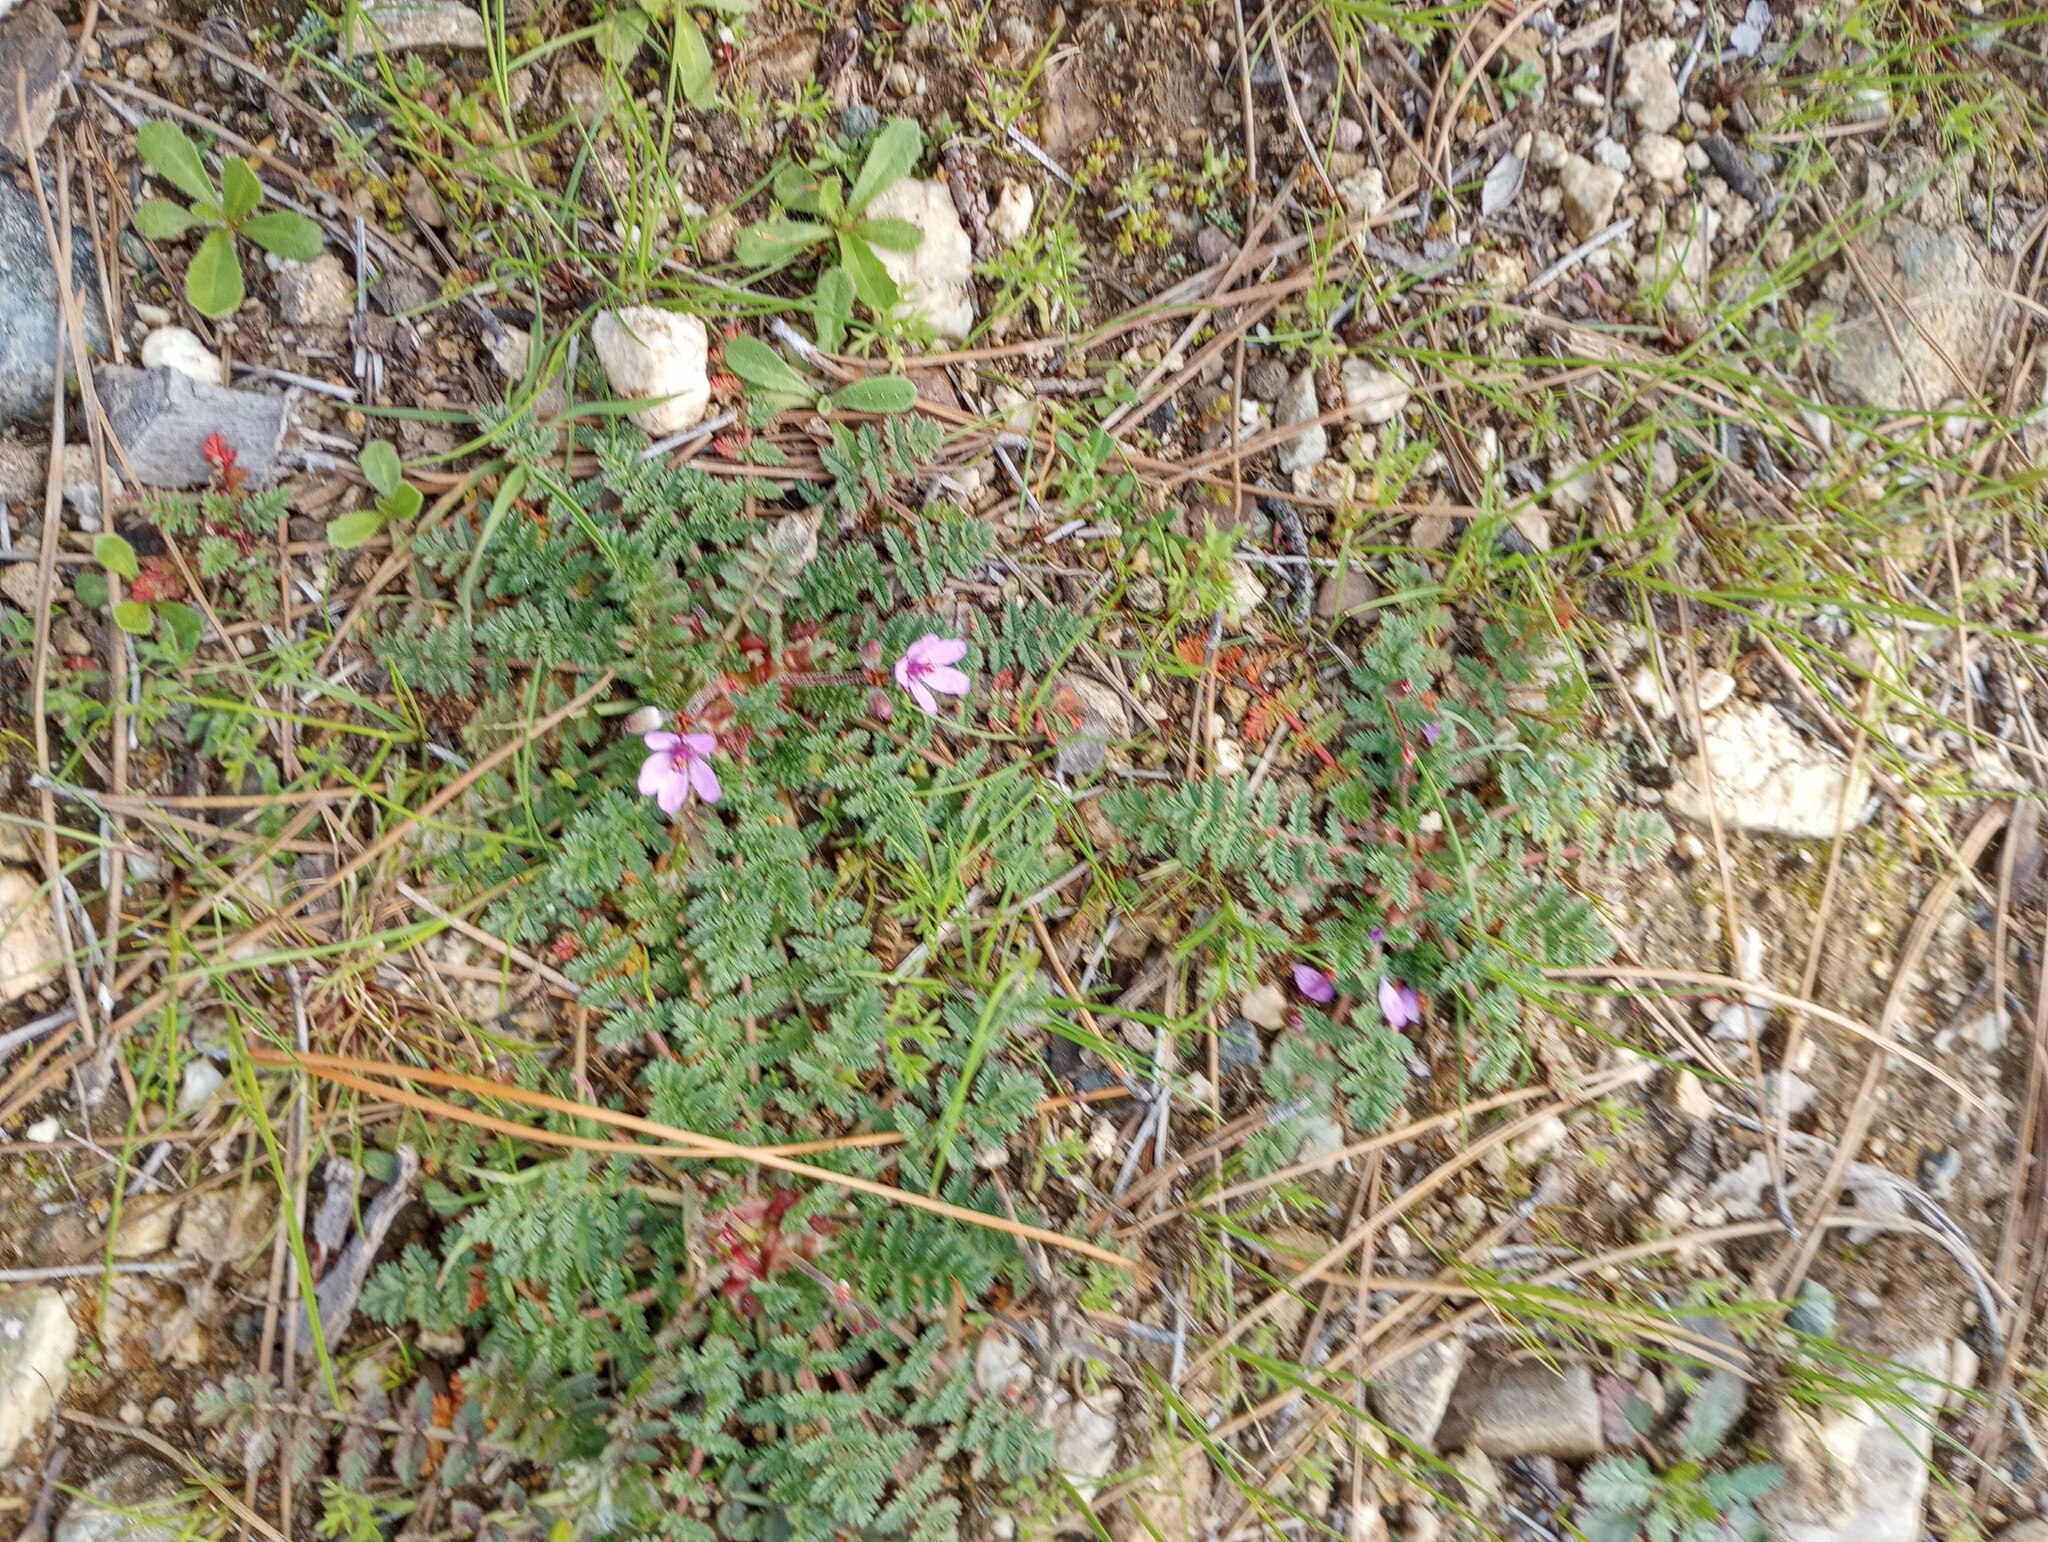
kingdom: Plantae
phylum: Tracheophyta
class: Magnoliopsida
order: Geraniales
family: Geraniaceae
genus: Erodium
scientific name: Erodium cicutarium
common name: Common stork's-bill
